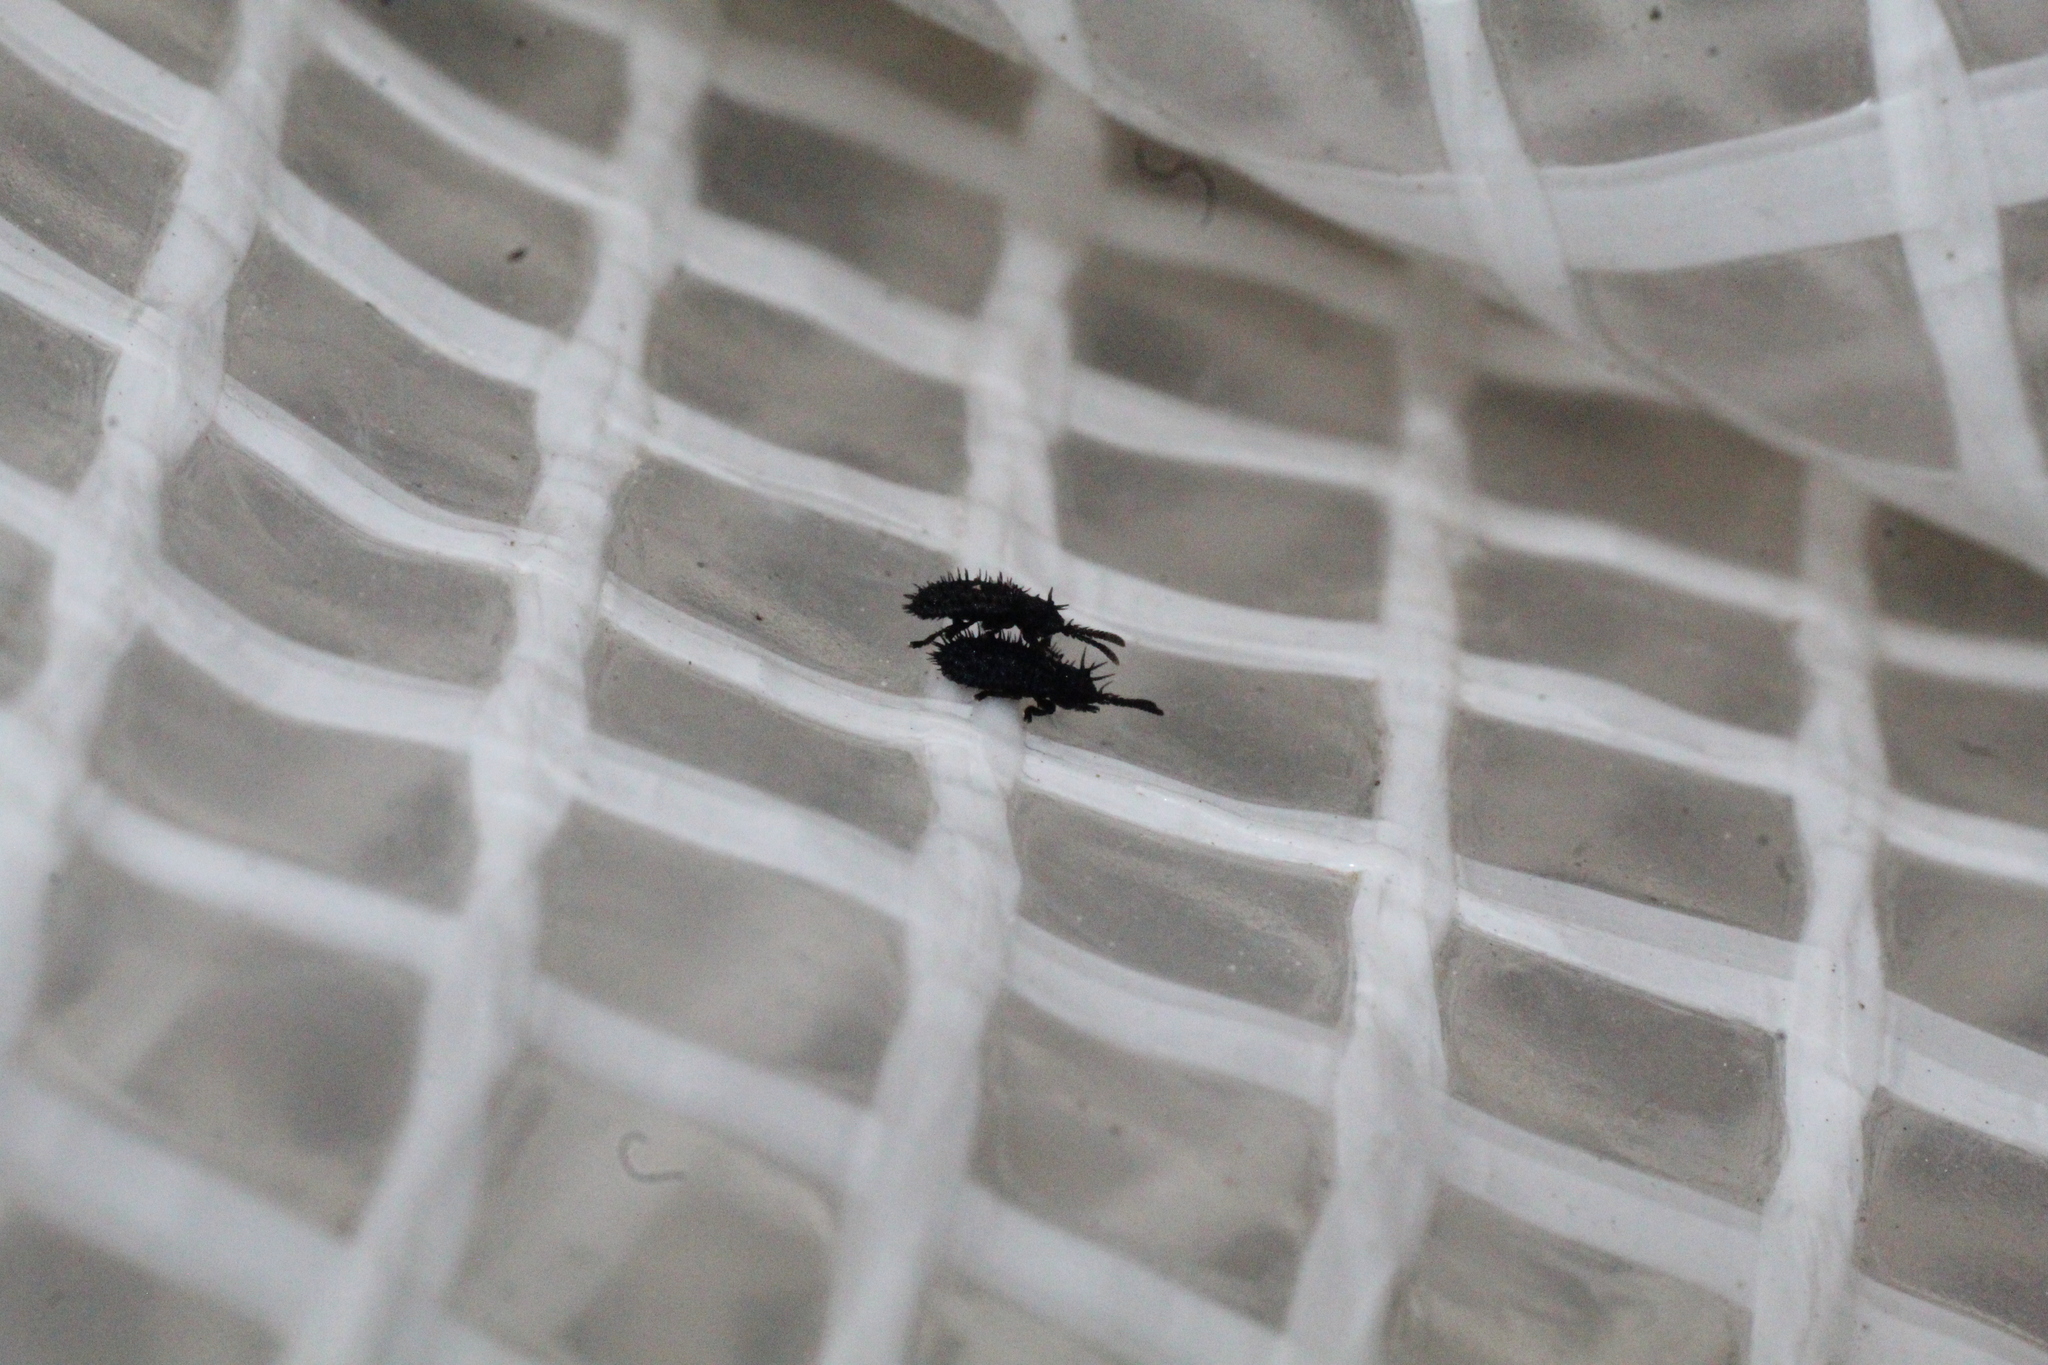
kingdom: Animalia
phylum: Arthropoda
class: Insecta
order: Coleoptera
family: Chrysomelidae
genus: Hispa
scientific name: Hispa atra
